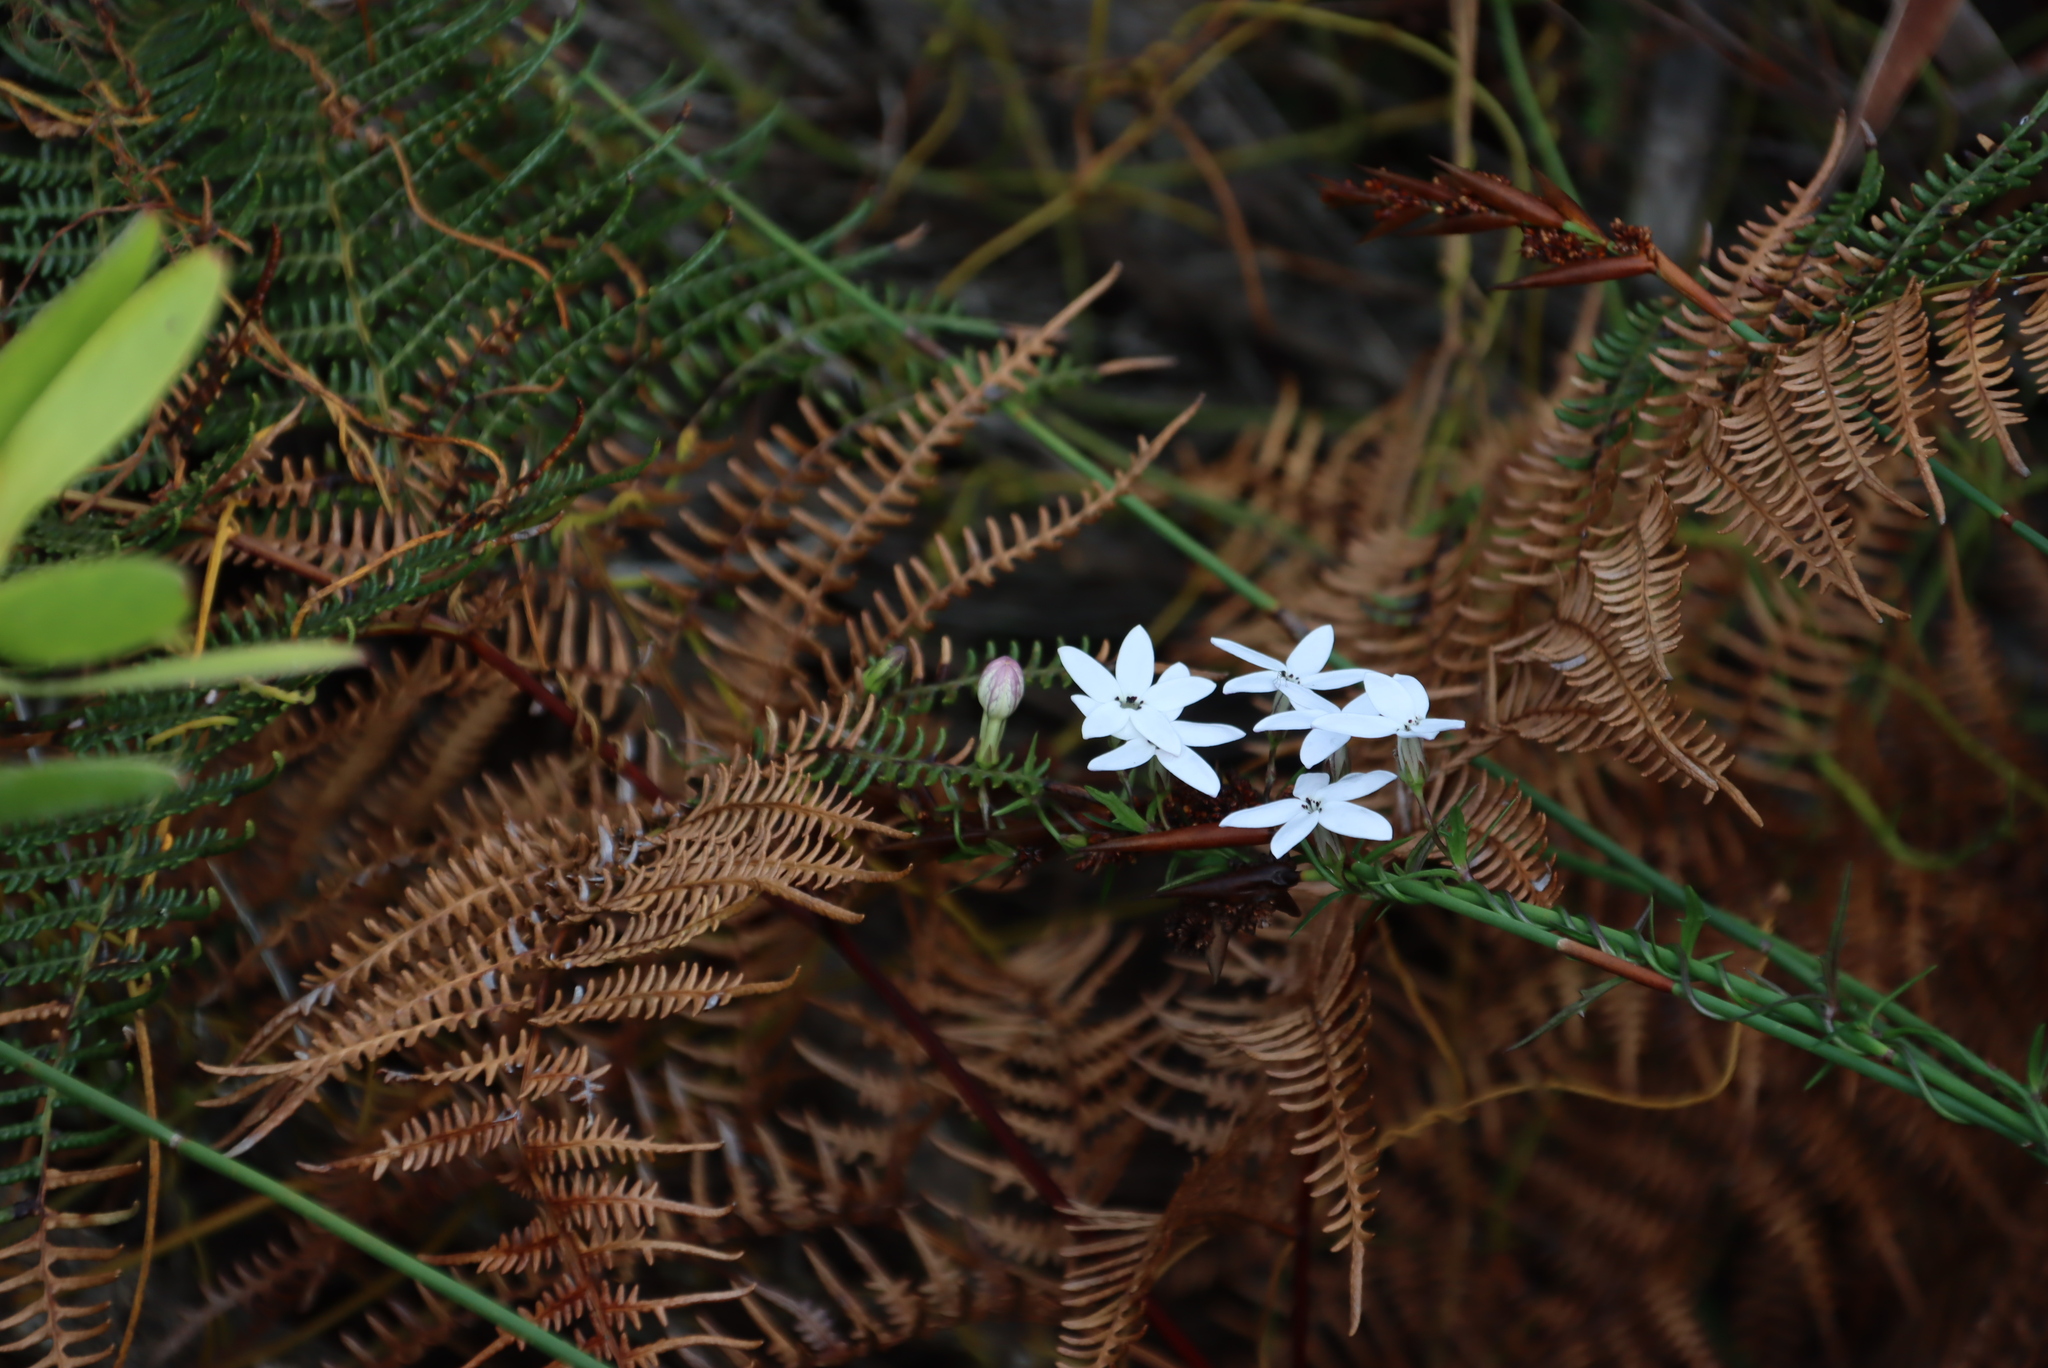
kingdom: Plantae
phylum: Tracheophyta
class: Magnoliopsida
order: Asterales
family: Campanulaceae
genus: Cyphia
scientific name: Cyphia volubilis
